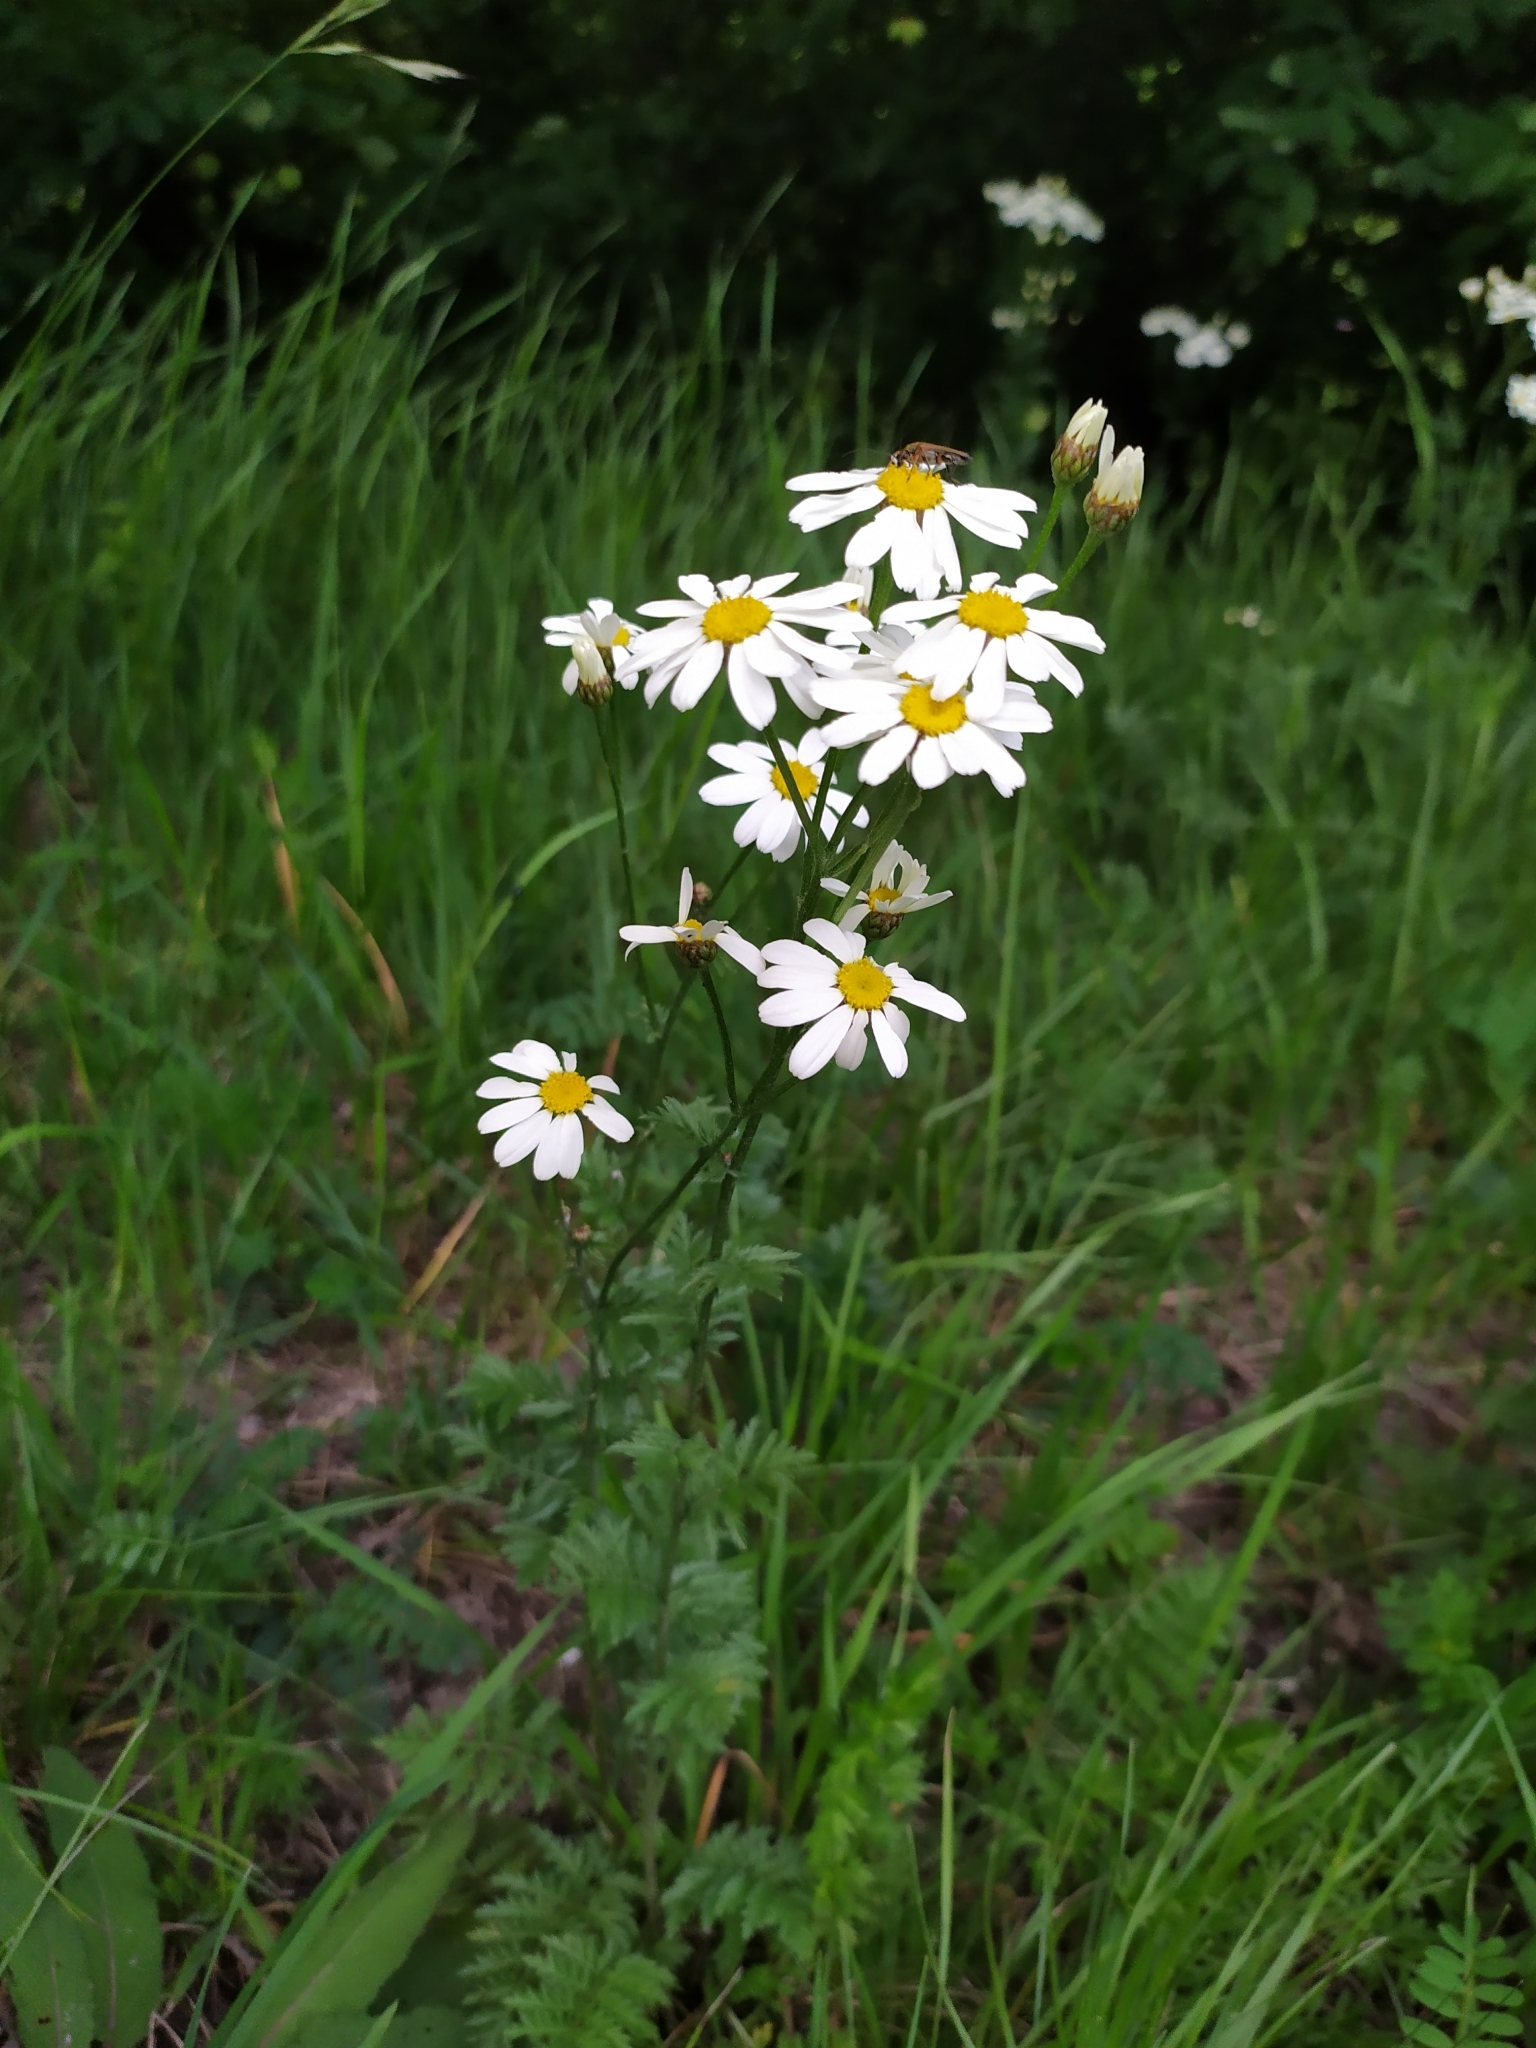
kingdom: Plantae
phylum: Tracheophyta
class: Magnoliopsida
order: Asterales
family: Asteraceae
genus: Tanacetum
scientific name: Tanacetum corymbosum
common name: Scentless feverfew
